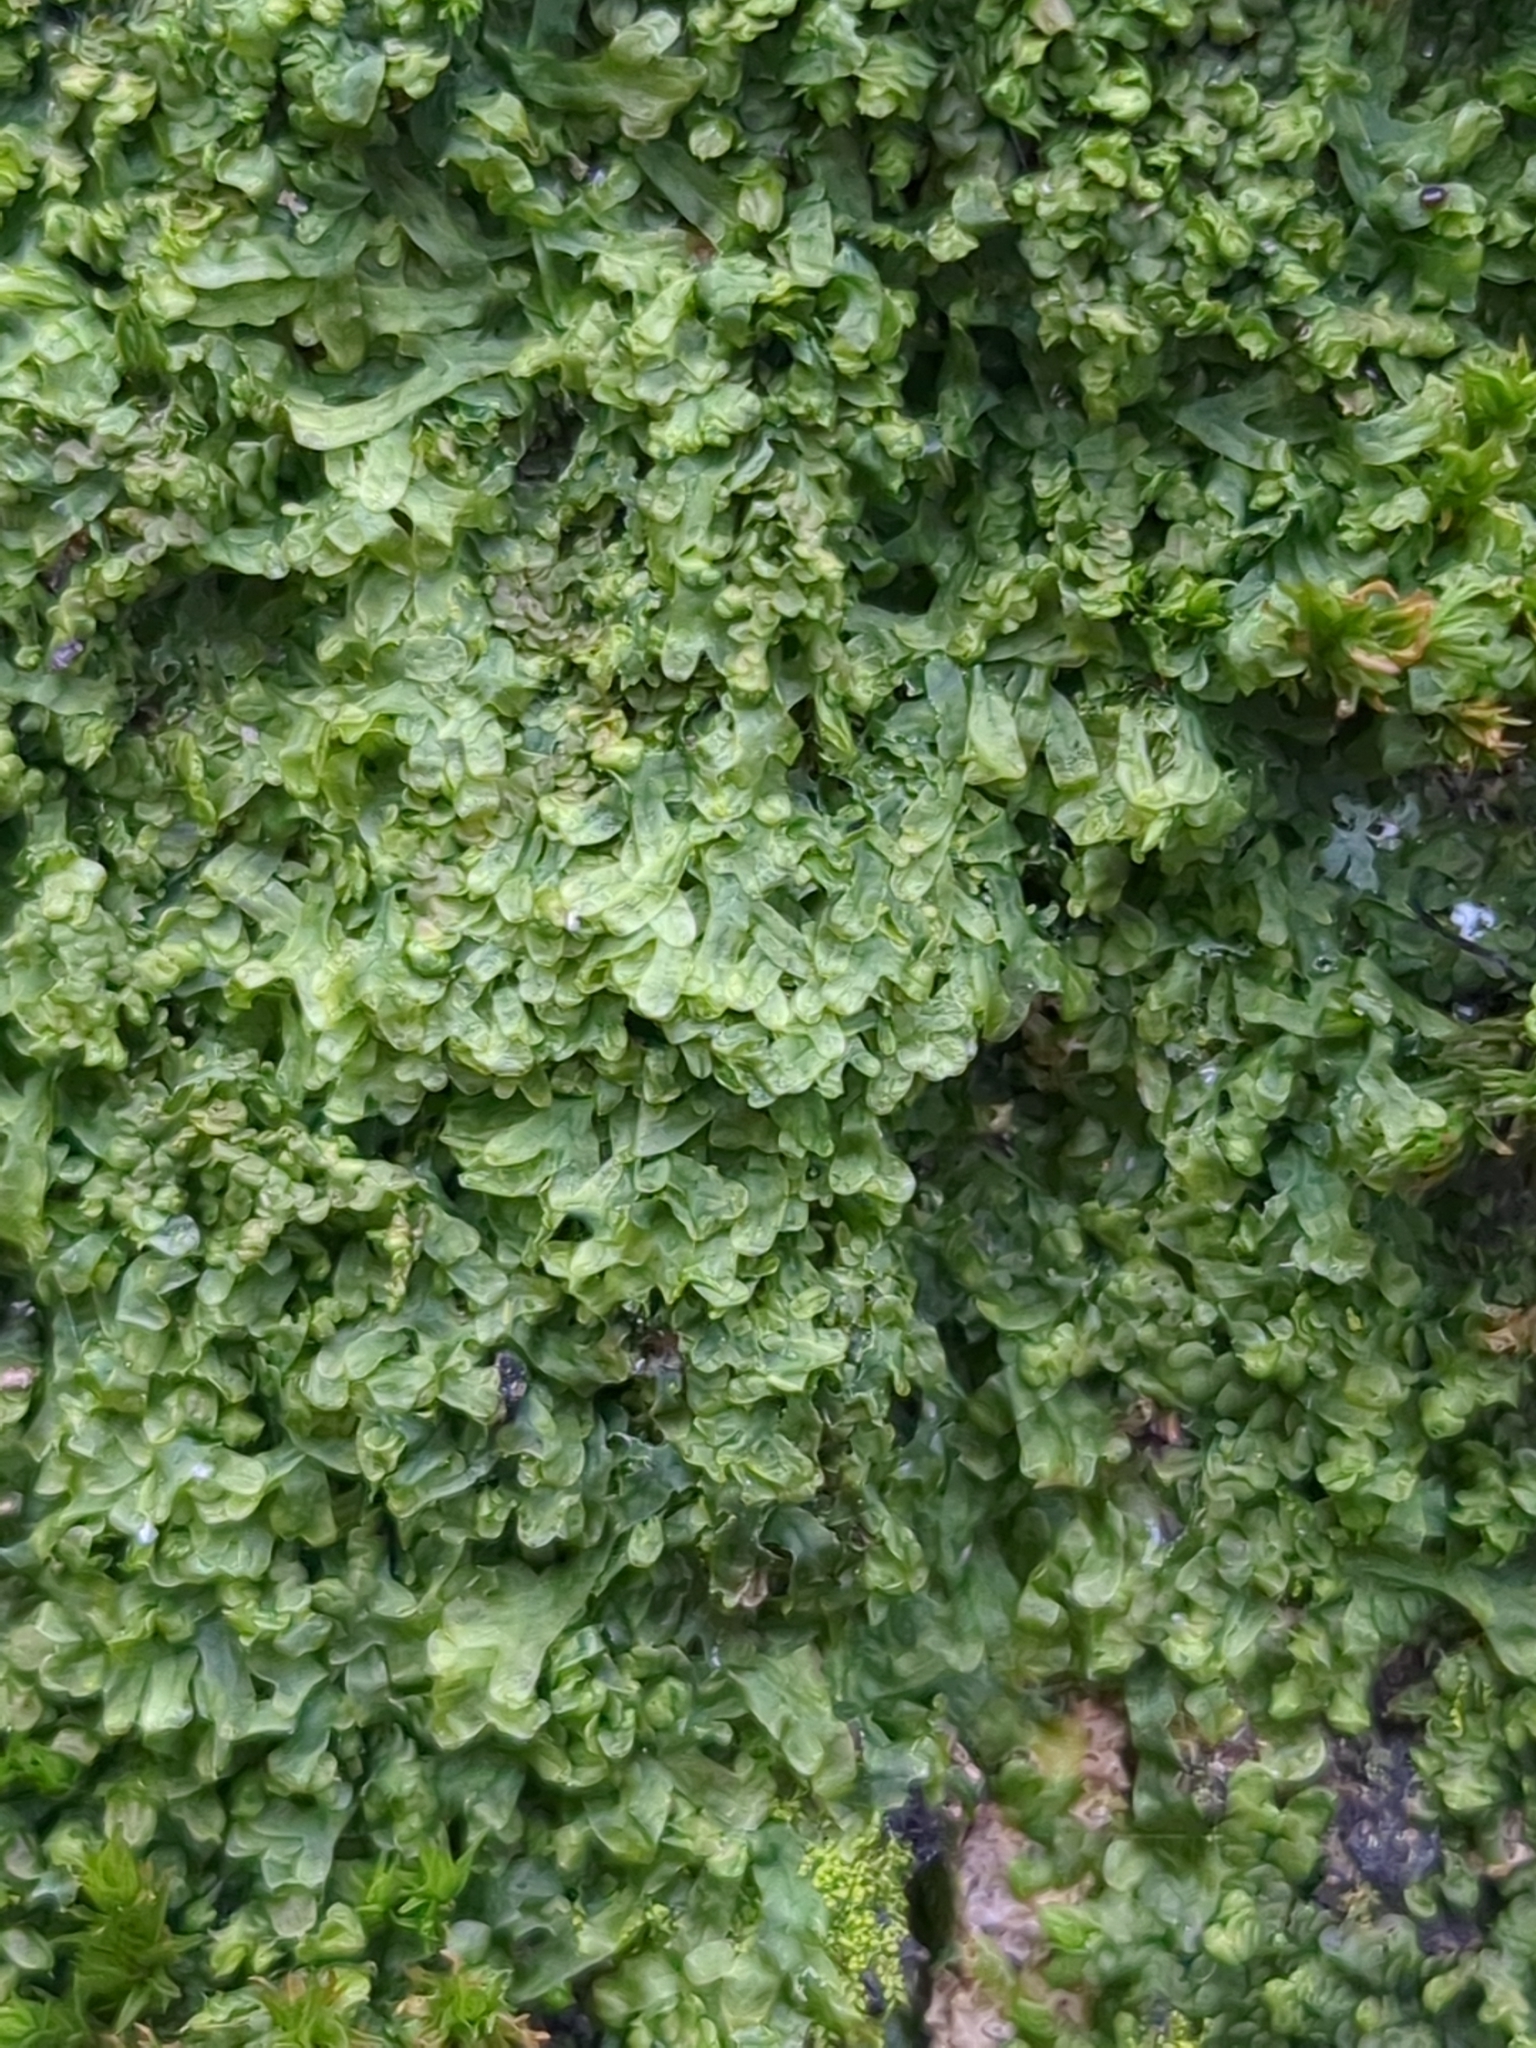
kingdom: Plantae
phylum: Marchantiophyta
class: Jungermanniopsida
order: Metzgeriales
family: Metzgeriaceae
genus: Metzgeria
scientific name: Metzgeria furcata
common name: Forked veilwort
